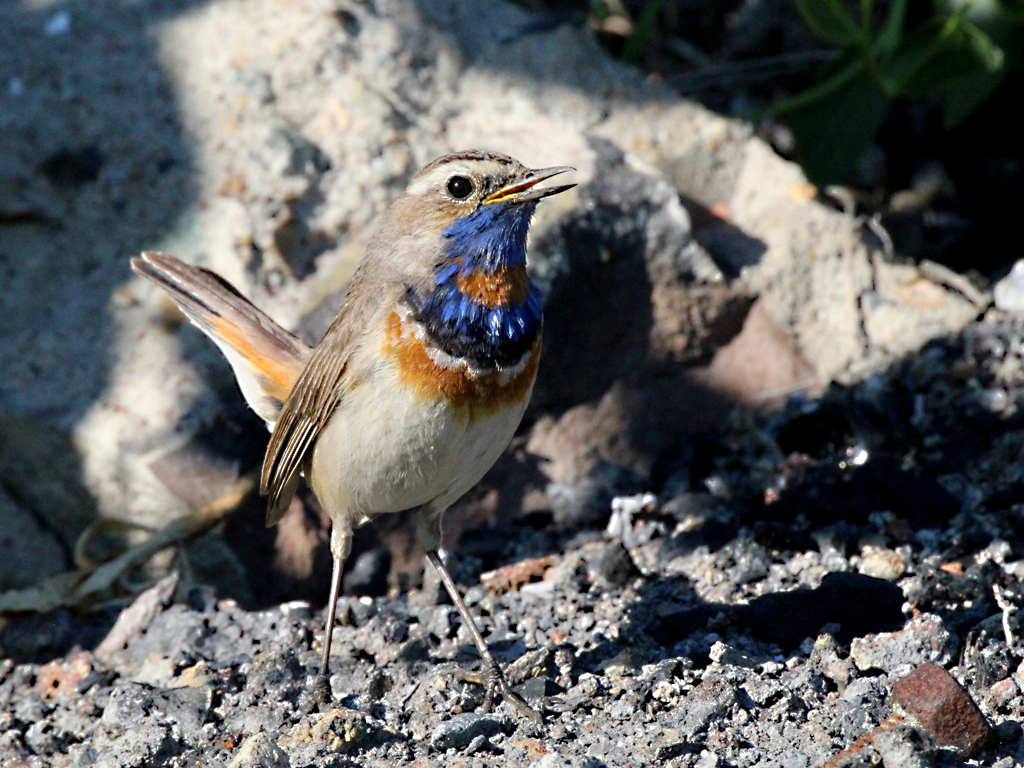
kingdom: Animalia
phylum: Chordata
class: Aves
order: Passeriformes
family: Muscicapidae
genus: Luscinia
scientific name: Luscinia svecica
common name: Bluethroat
